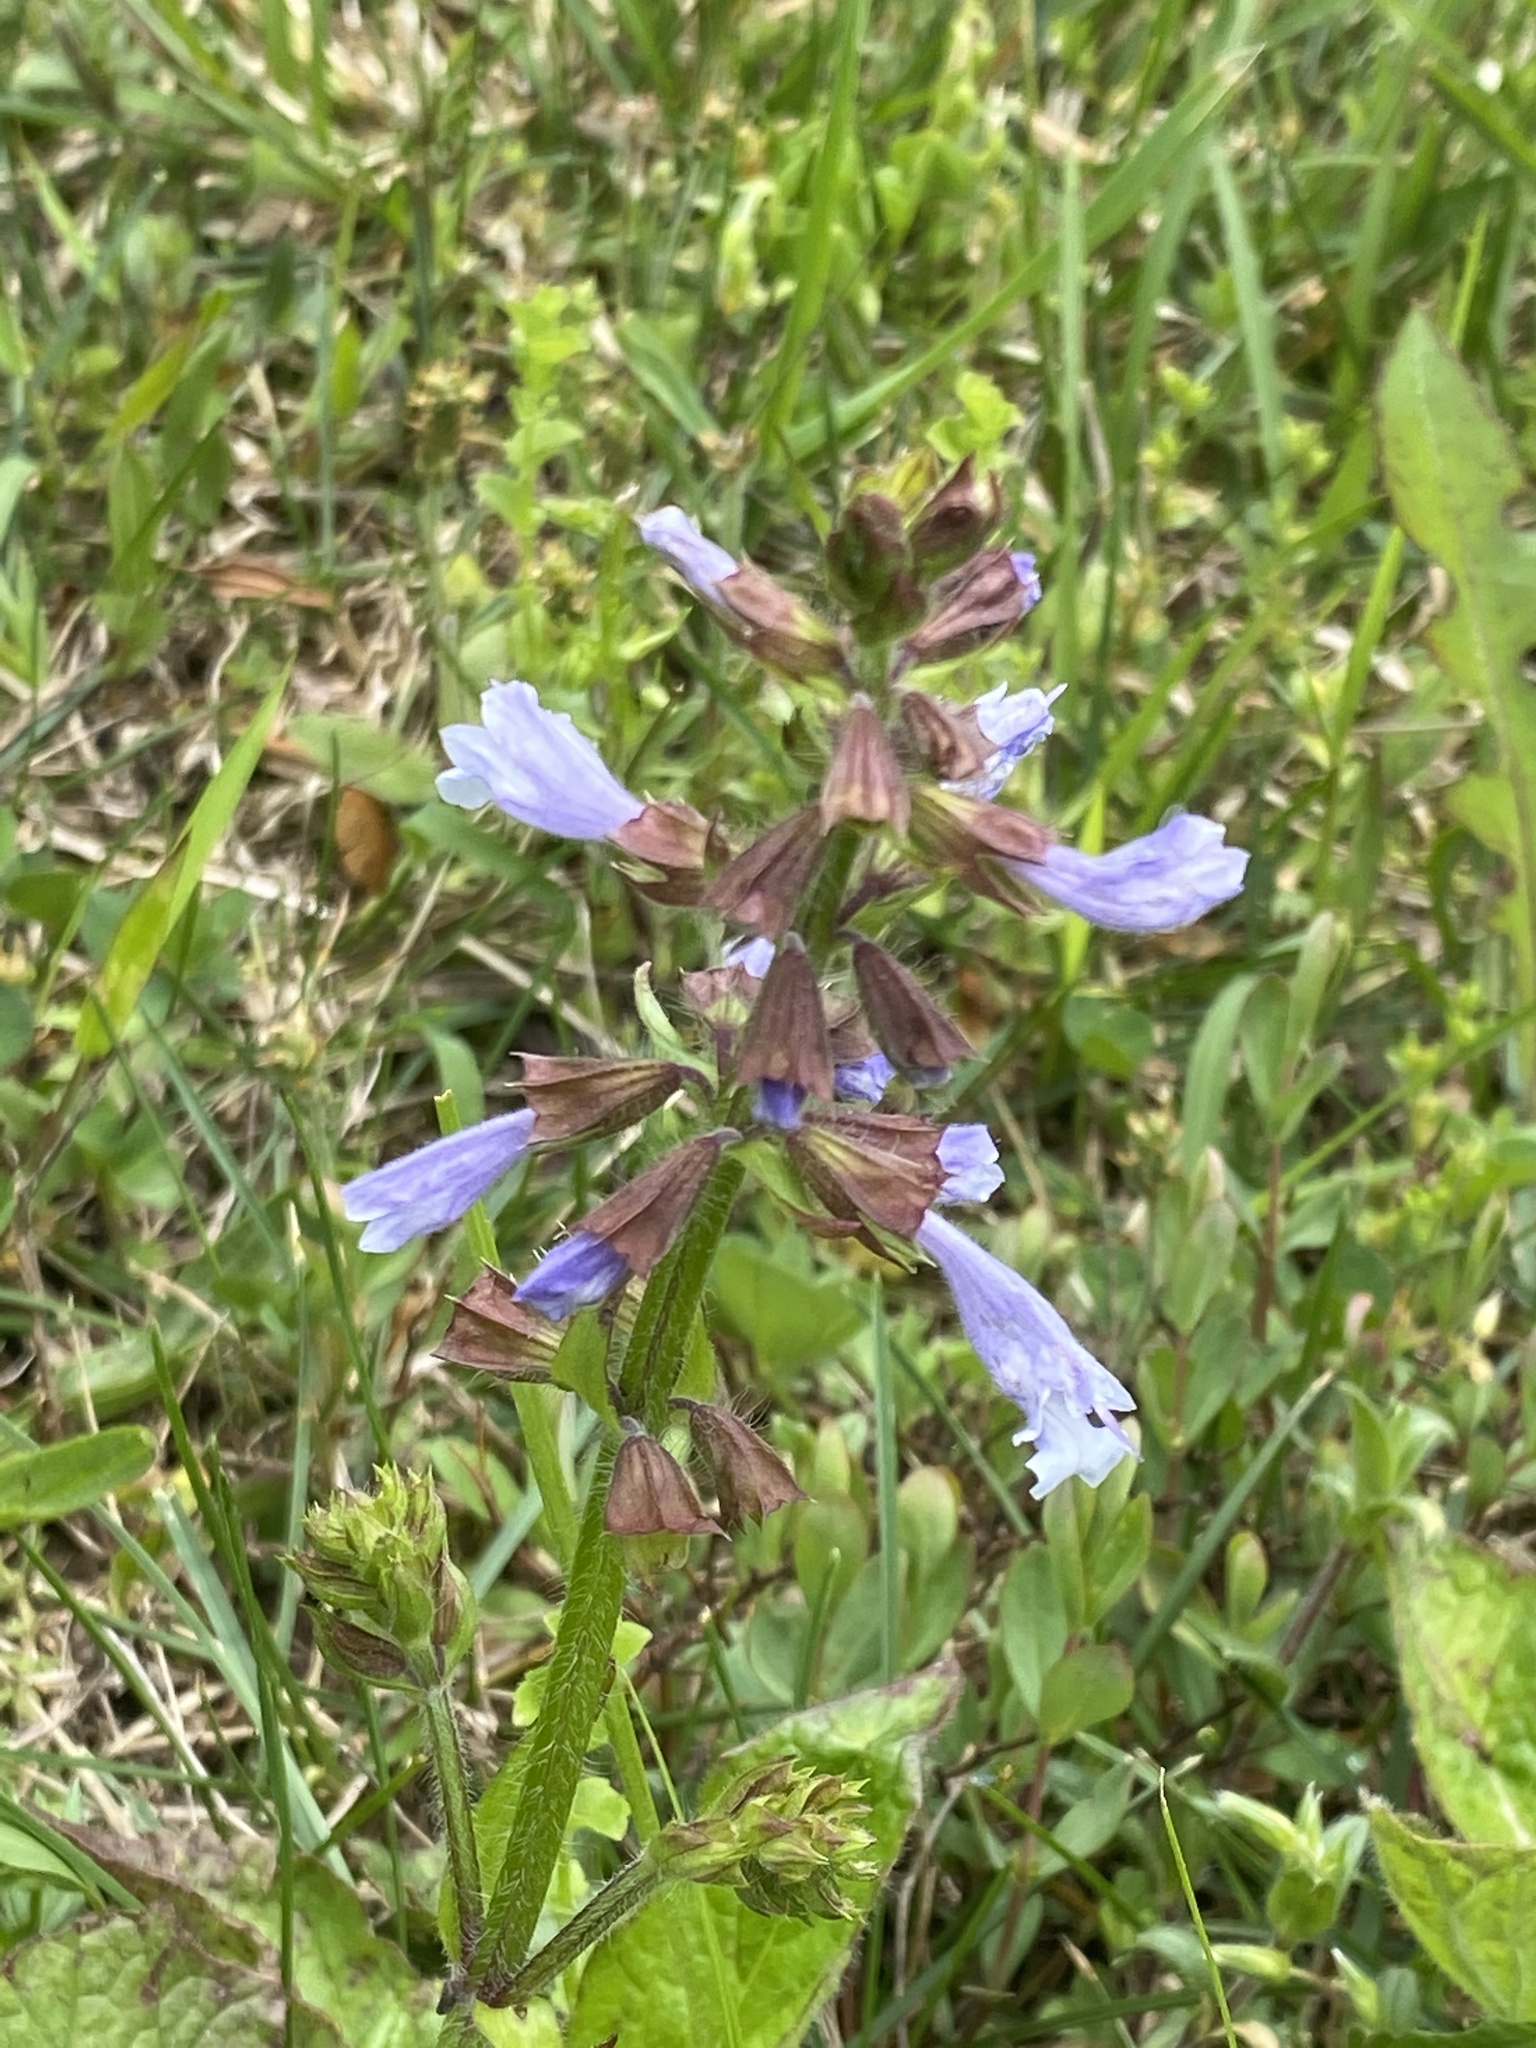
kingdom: Plantae
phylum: Tracheophyta
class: Magnoliopsida
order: Lamiales
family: Lamiaceae
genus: Salvia
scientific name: Salvia lyrata
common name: Cancerweed
